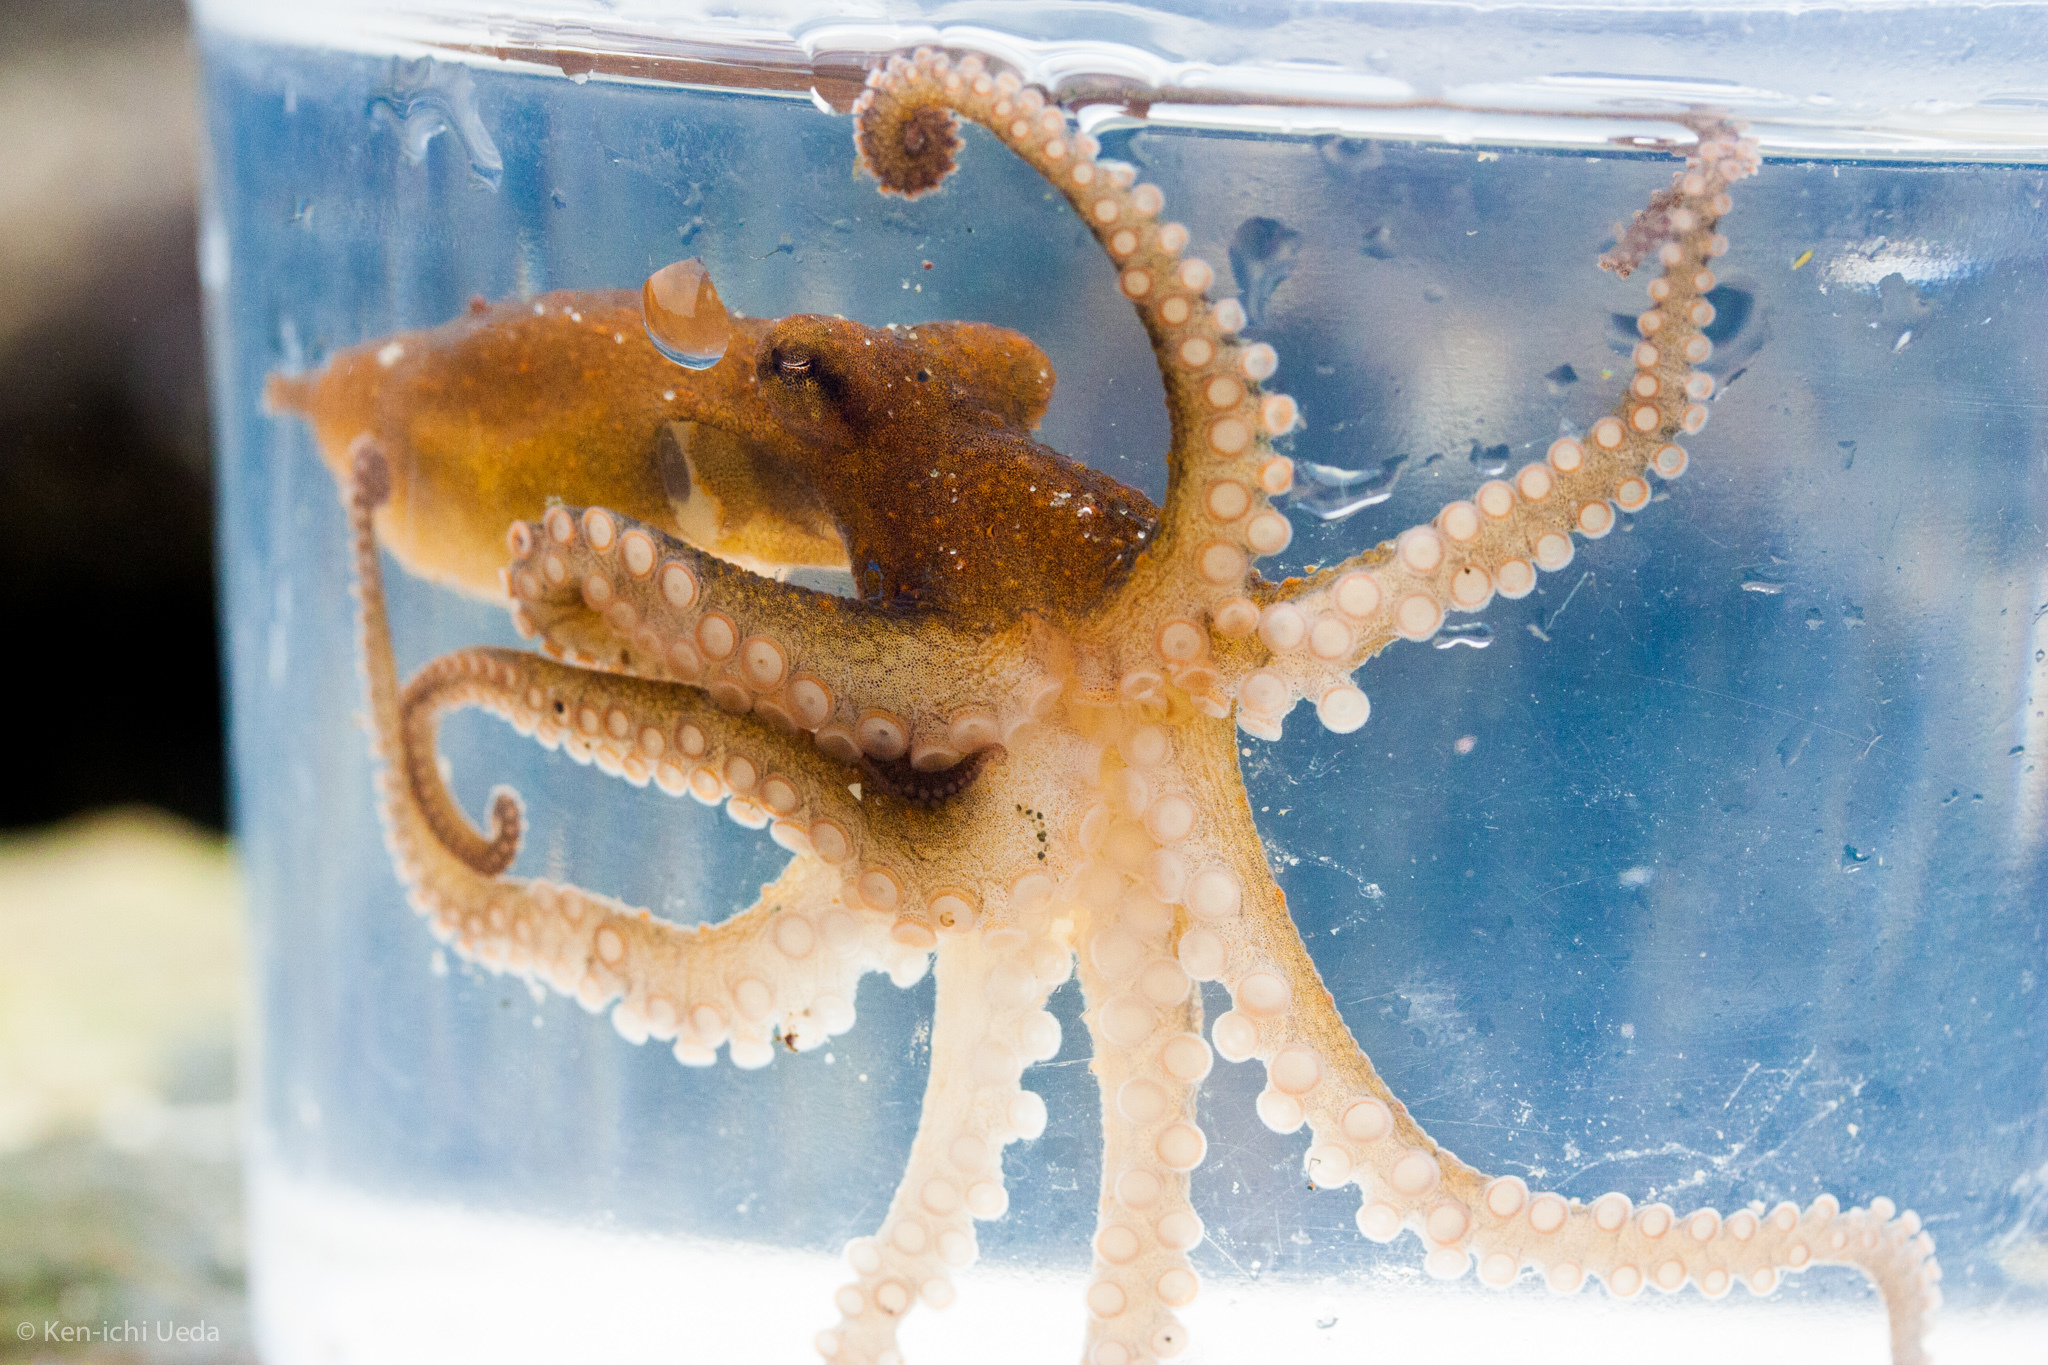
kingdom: Animalia
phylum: Mollusca
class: Cephalopoda
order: Octopoda
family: Octopodidae
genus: Octopus
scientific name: Octopus bimaculoides
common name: California two-spot octopus
